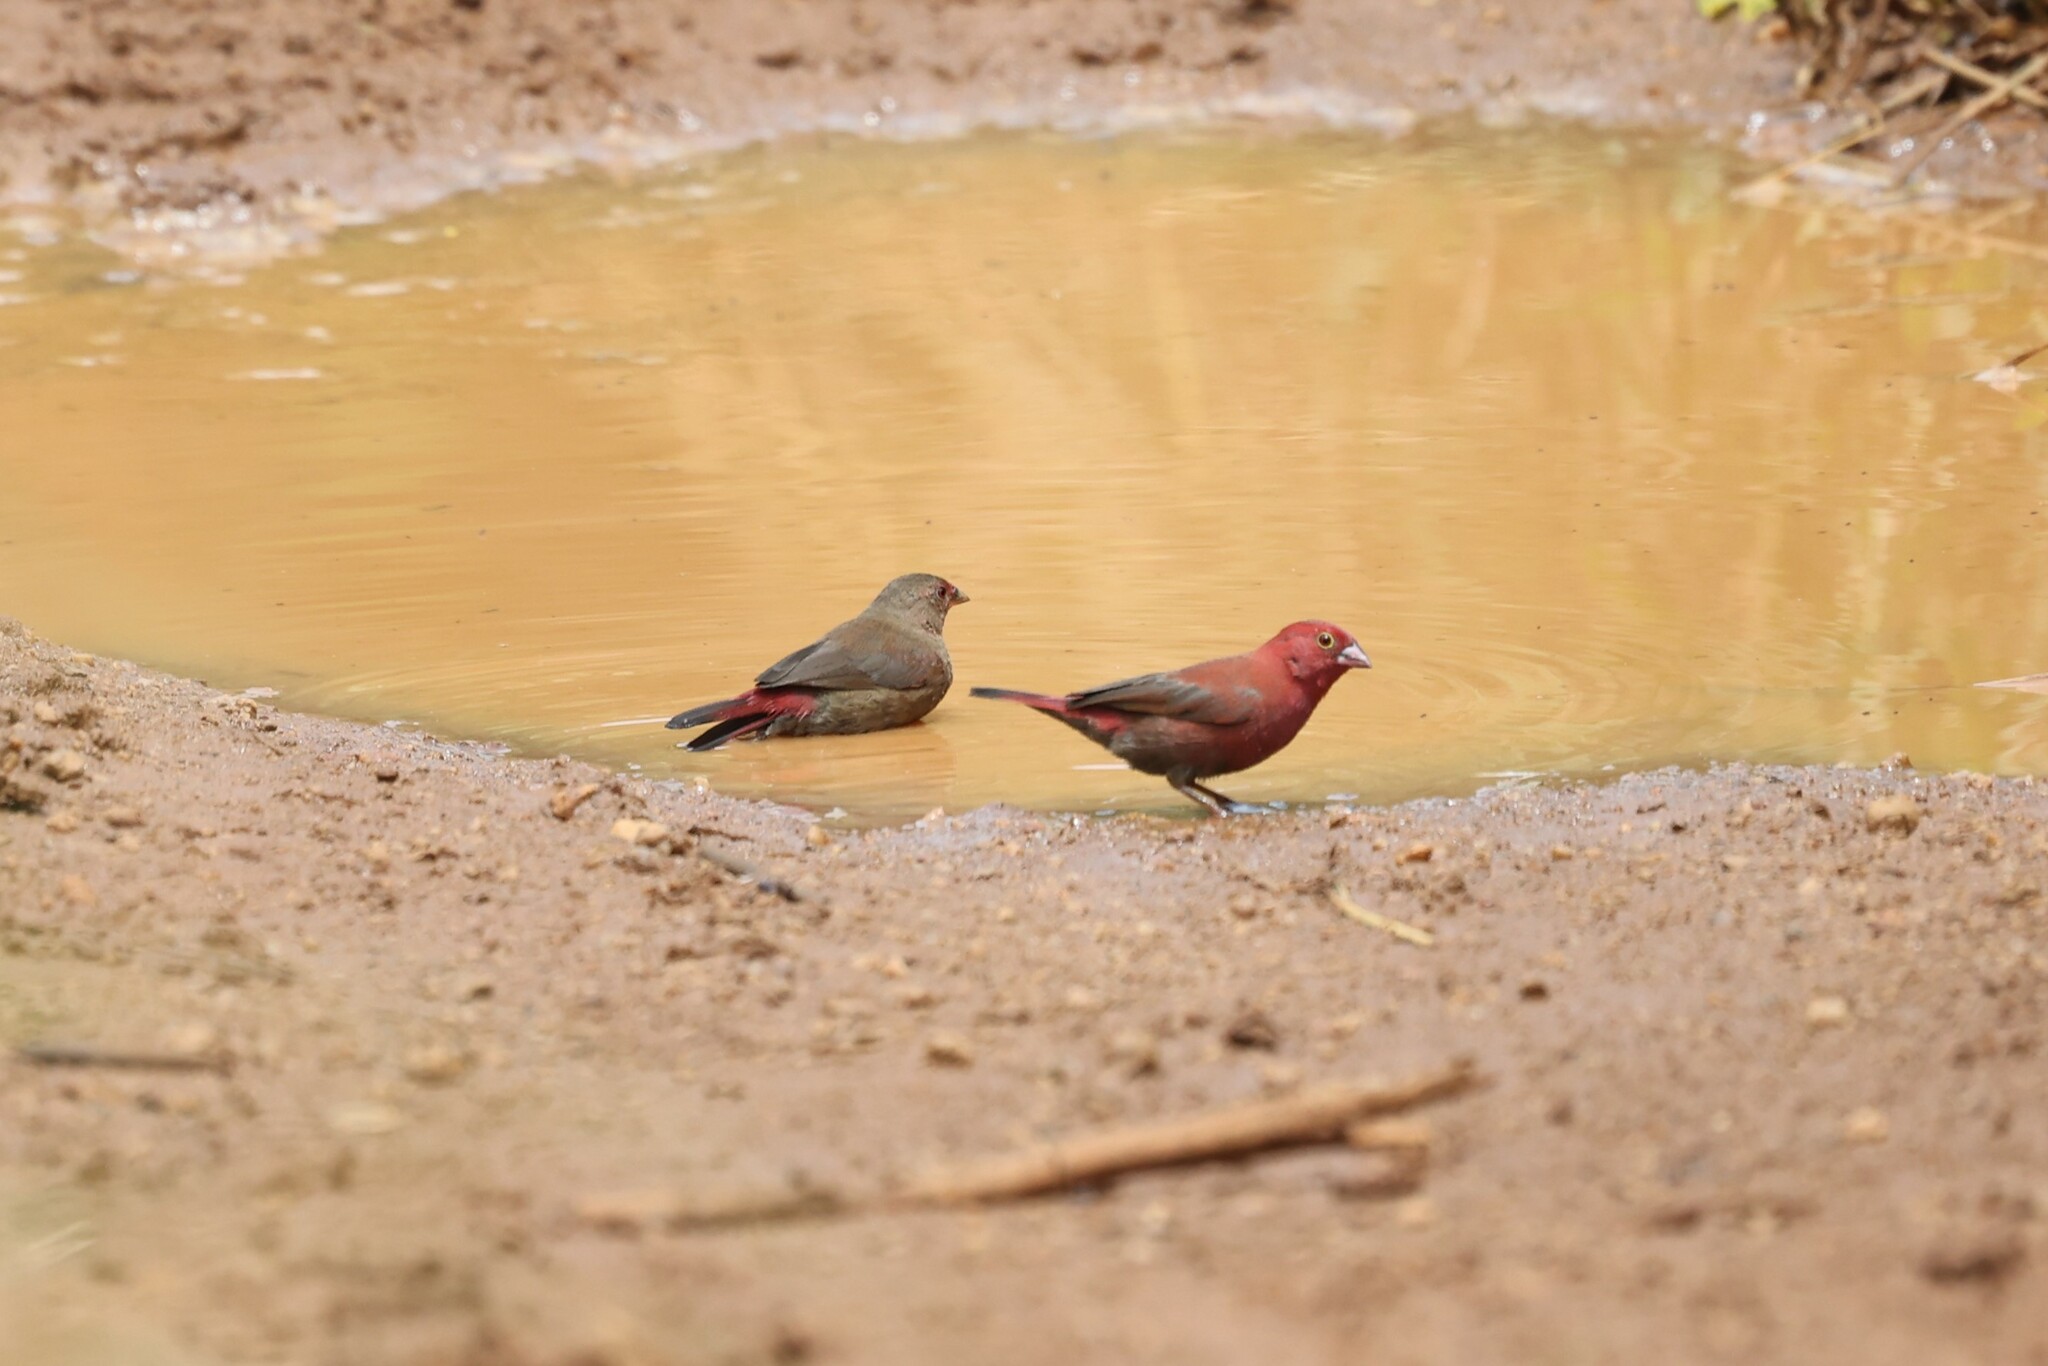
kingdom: Animalia
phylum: Chordata
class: Aves
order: Passeriformes
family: Estrildidae
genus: Lagonosticta
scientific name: Lagonosticta senegala
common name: Red-billed firefinch
